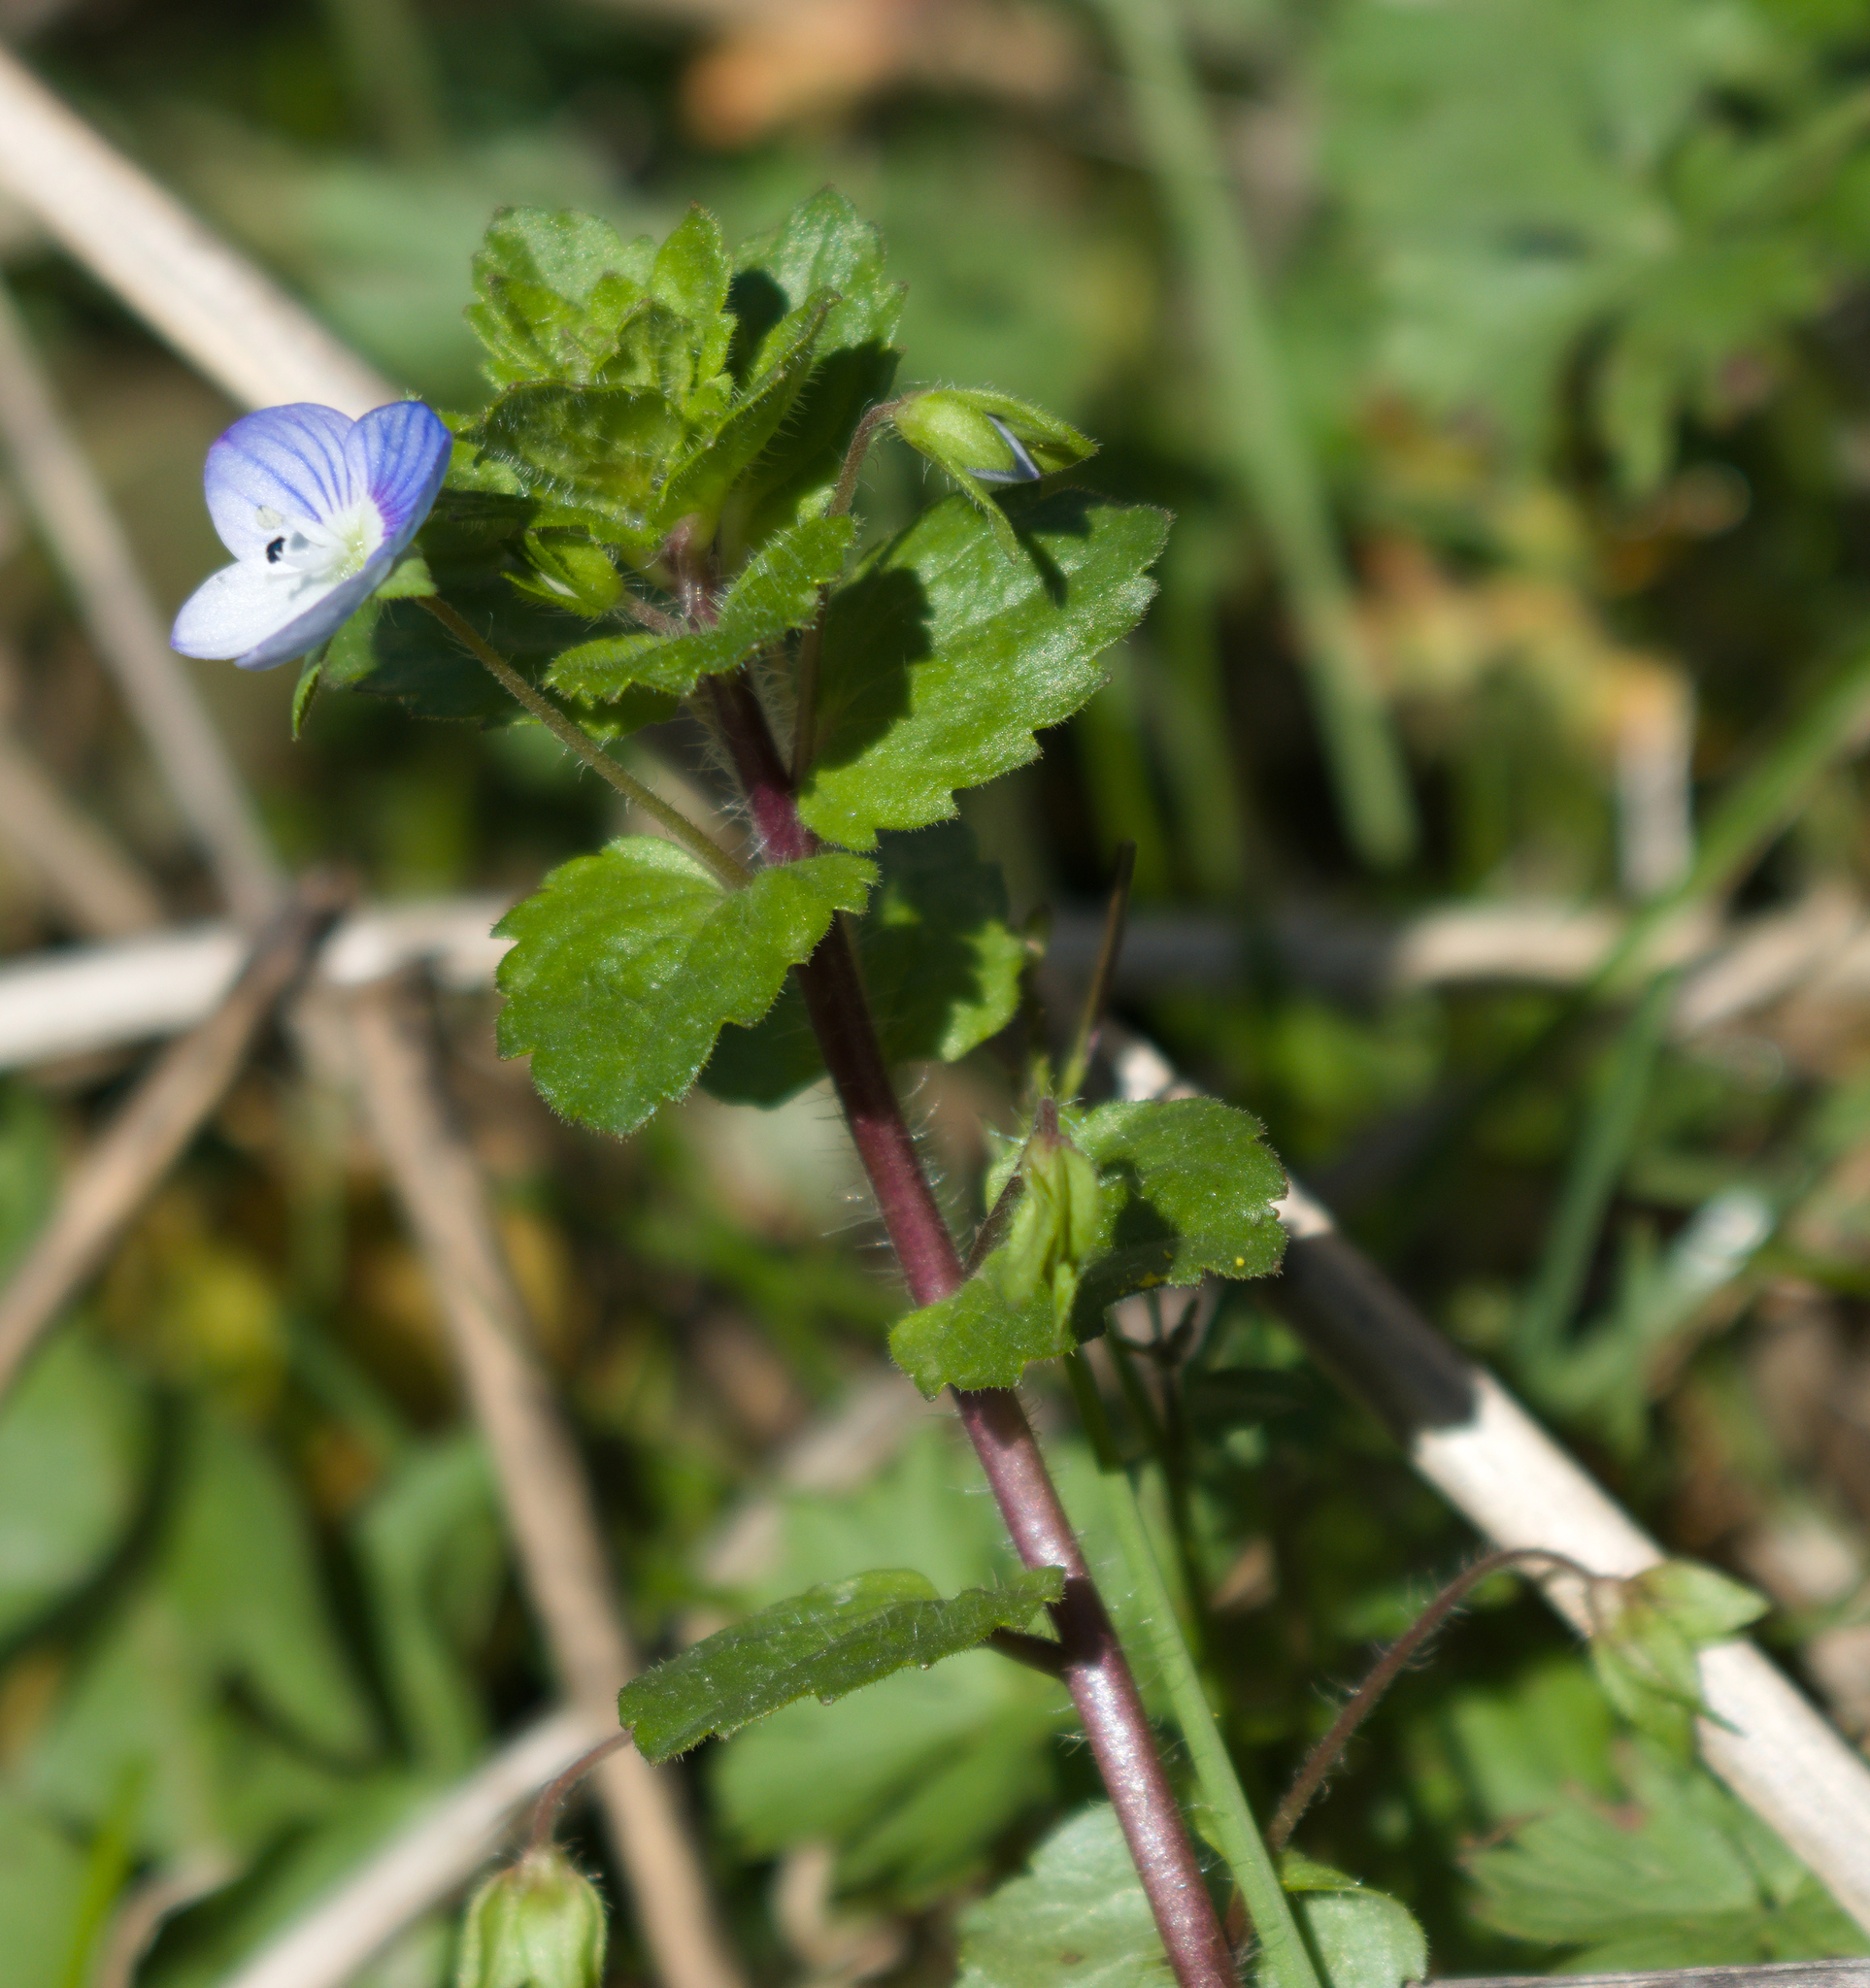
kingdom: Plantae
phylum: Tracheophyta
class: Magnoliopsida
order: Lamiales
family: Plantaginaceae
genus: Veronica
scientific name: Veronica persica
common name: Common field-speedwell
